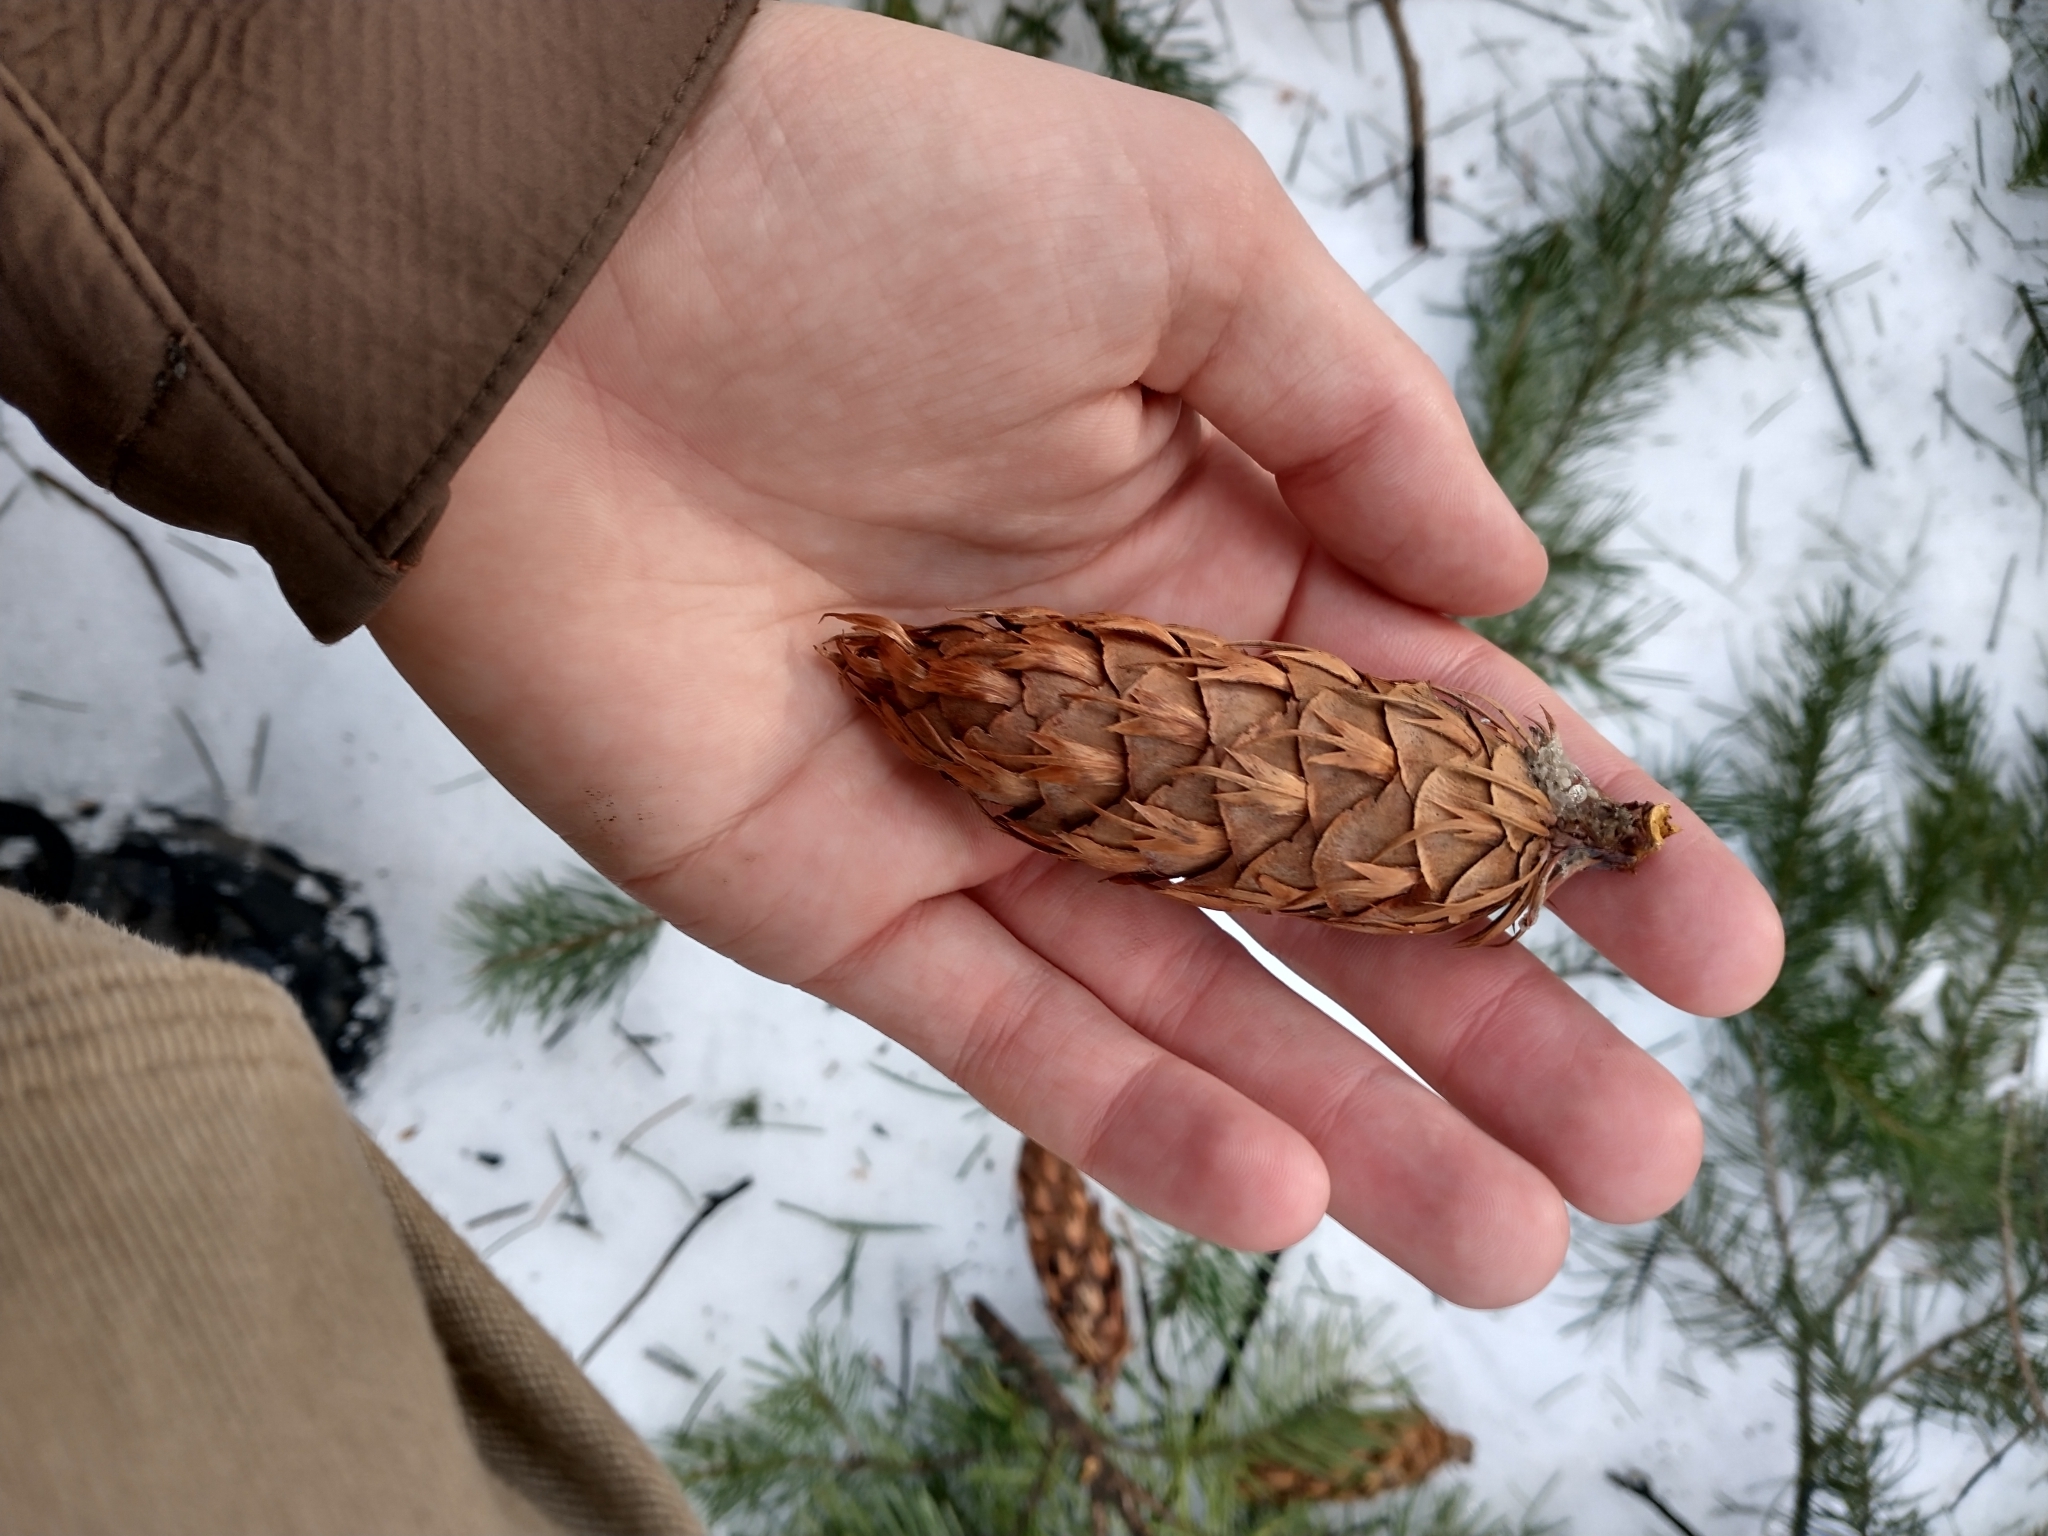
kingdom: Plantae
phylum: Tracheophyta
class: Pinopsida
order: Pinales
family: Pinaceae
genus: Pseudotsuga
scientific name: Pseudotsuga menziesii
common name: Douglas fir
